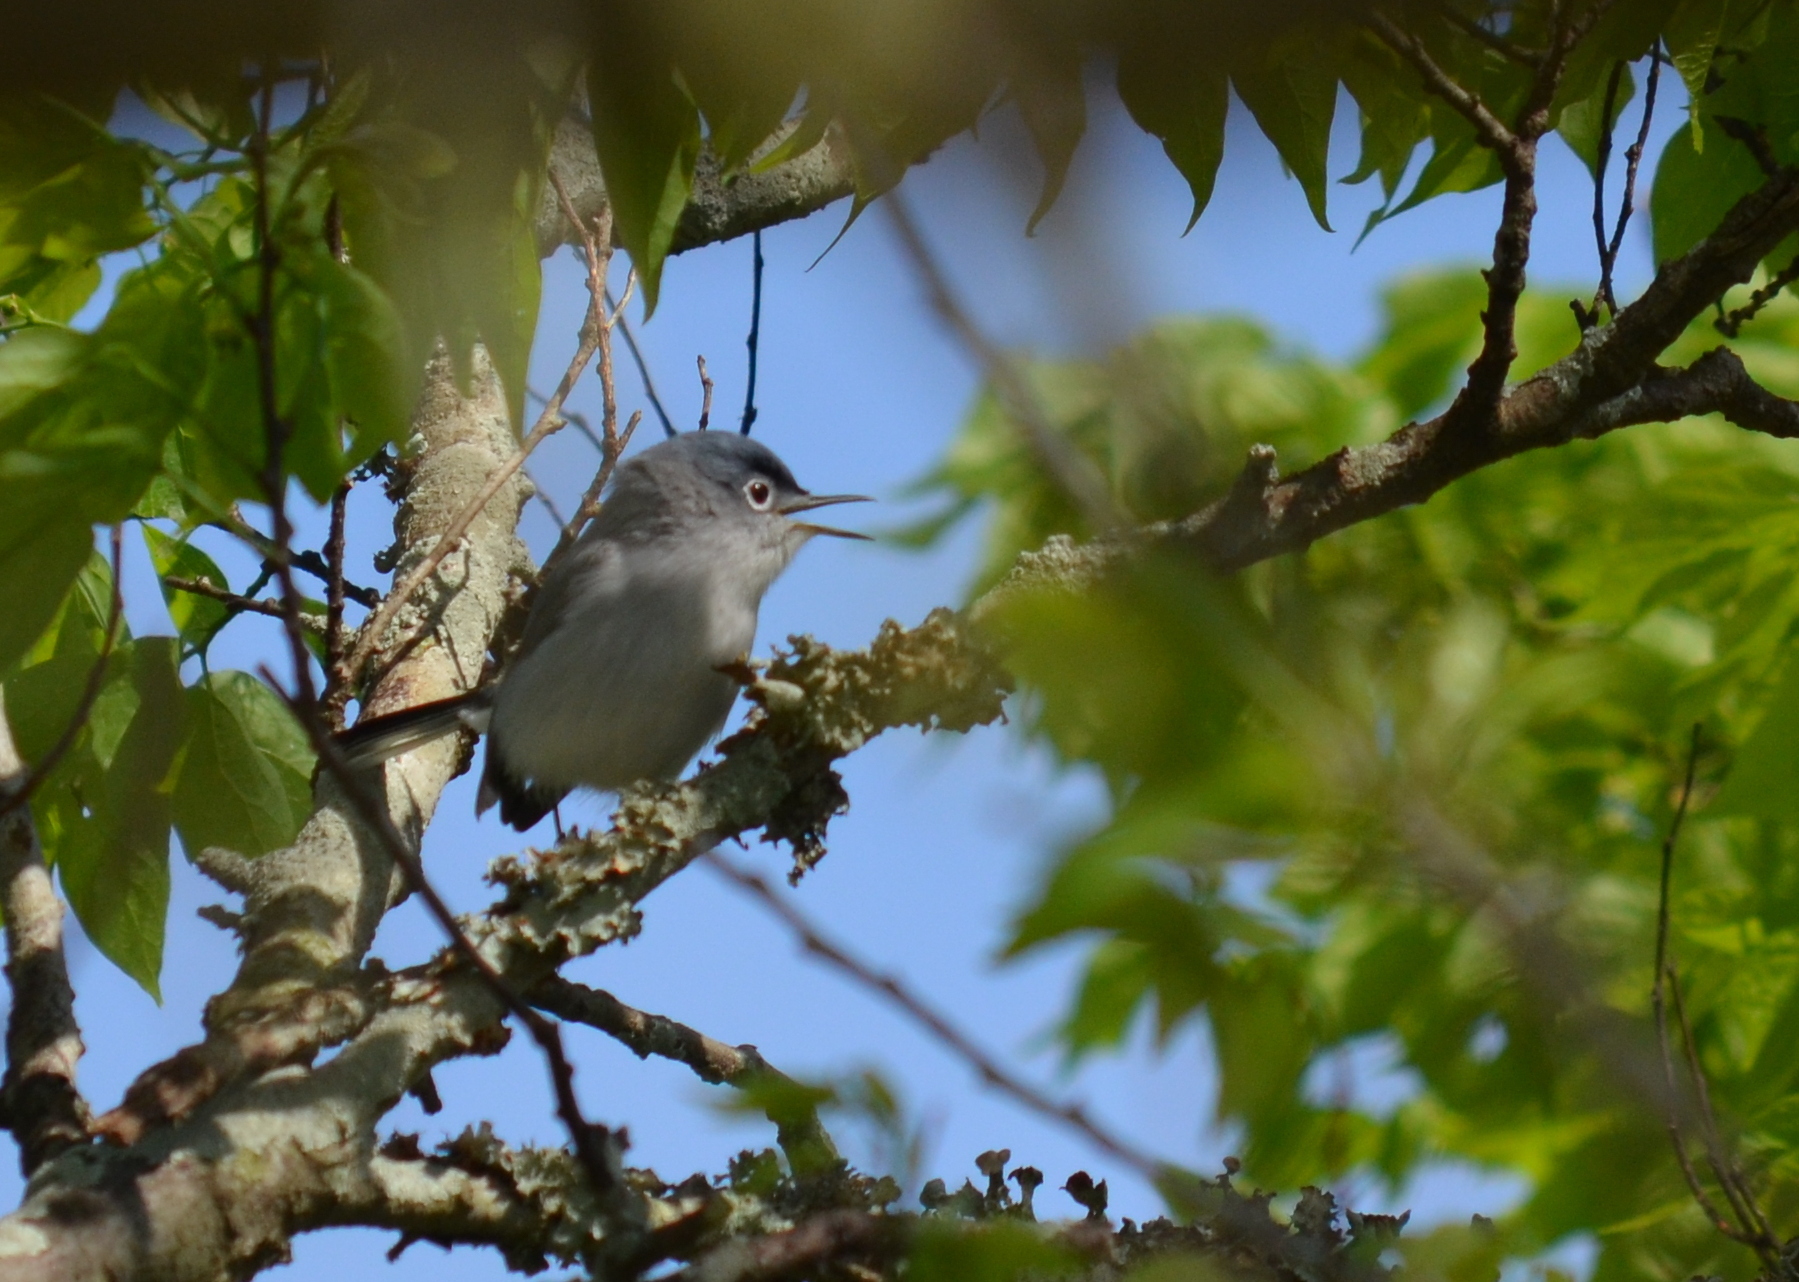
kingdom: Animalia
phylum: Chordata
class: Aves
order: Passeriformes
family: Polioptilidae
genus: Polioptila
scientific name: Polioptila caerulea
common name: Blue-gray gnatcatcher
